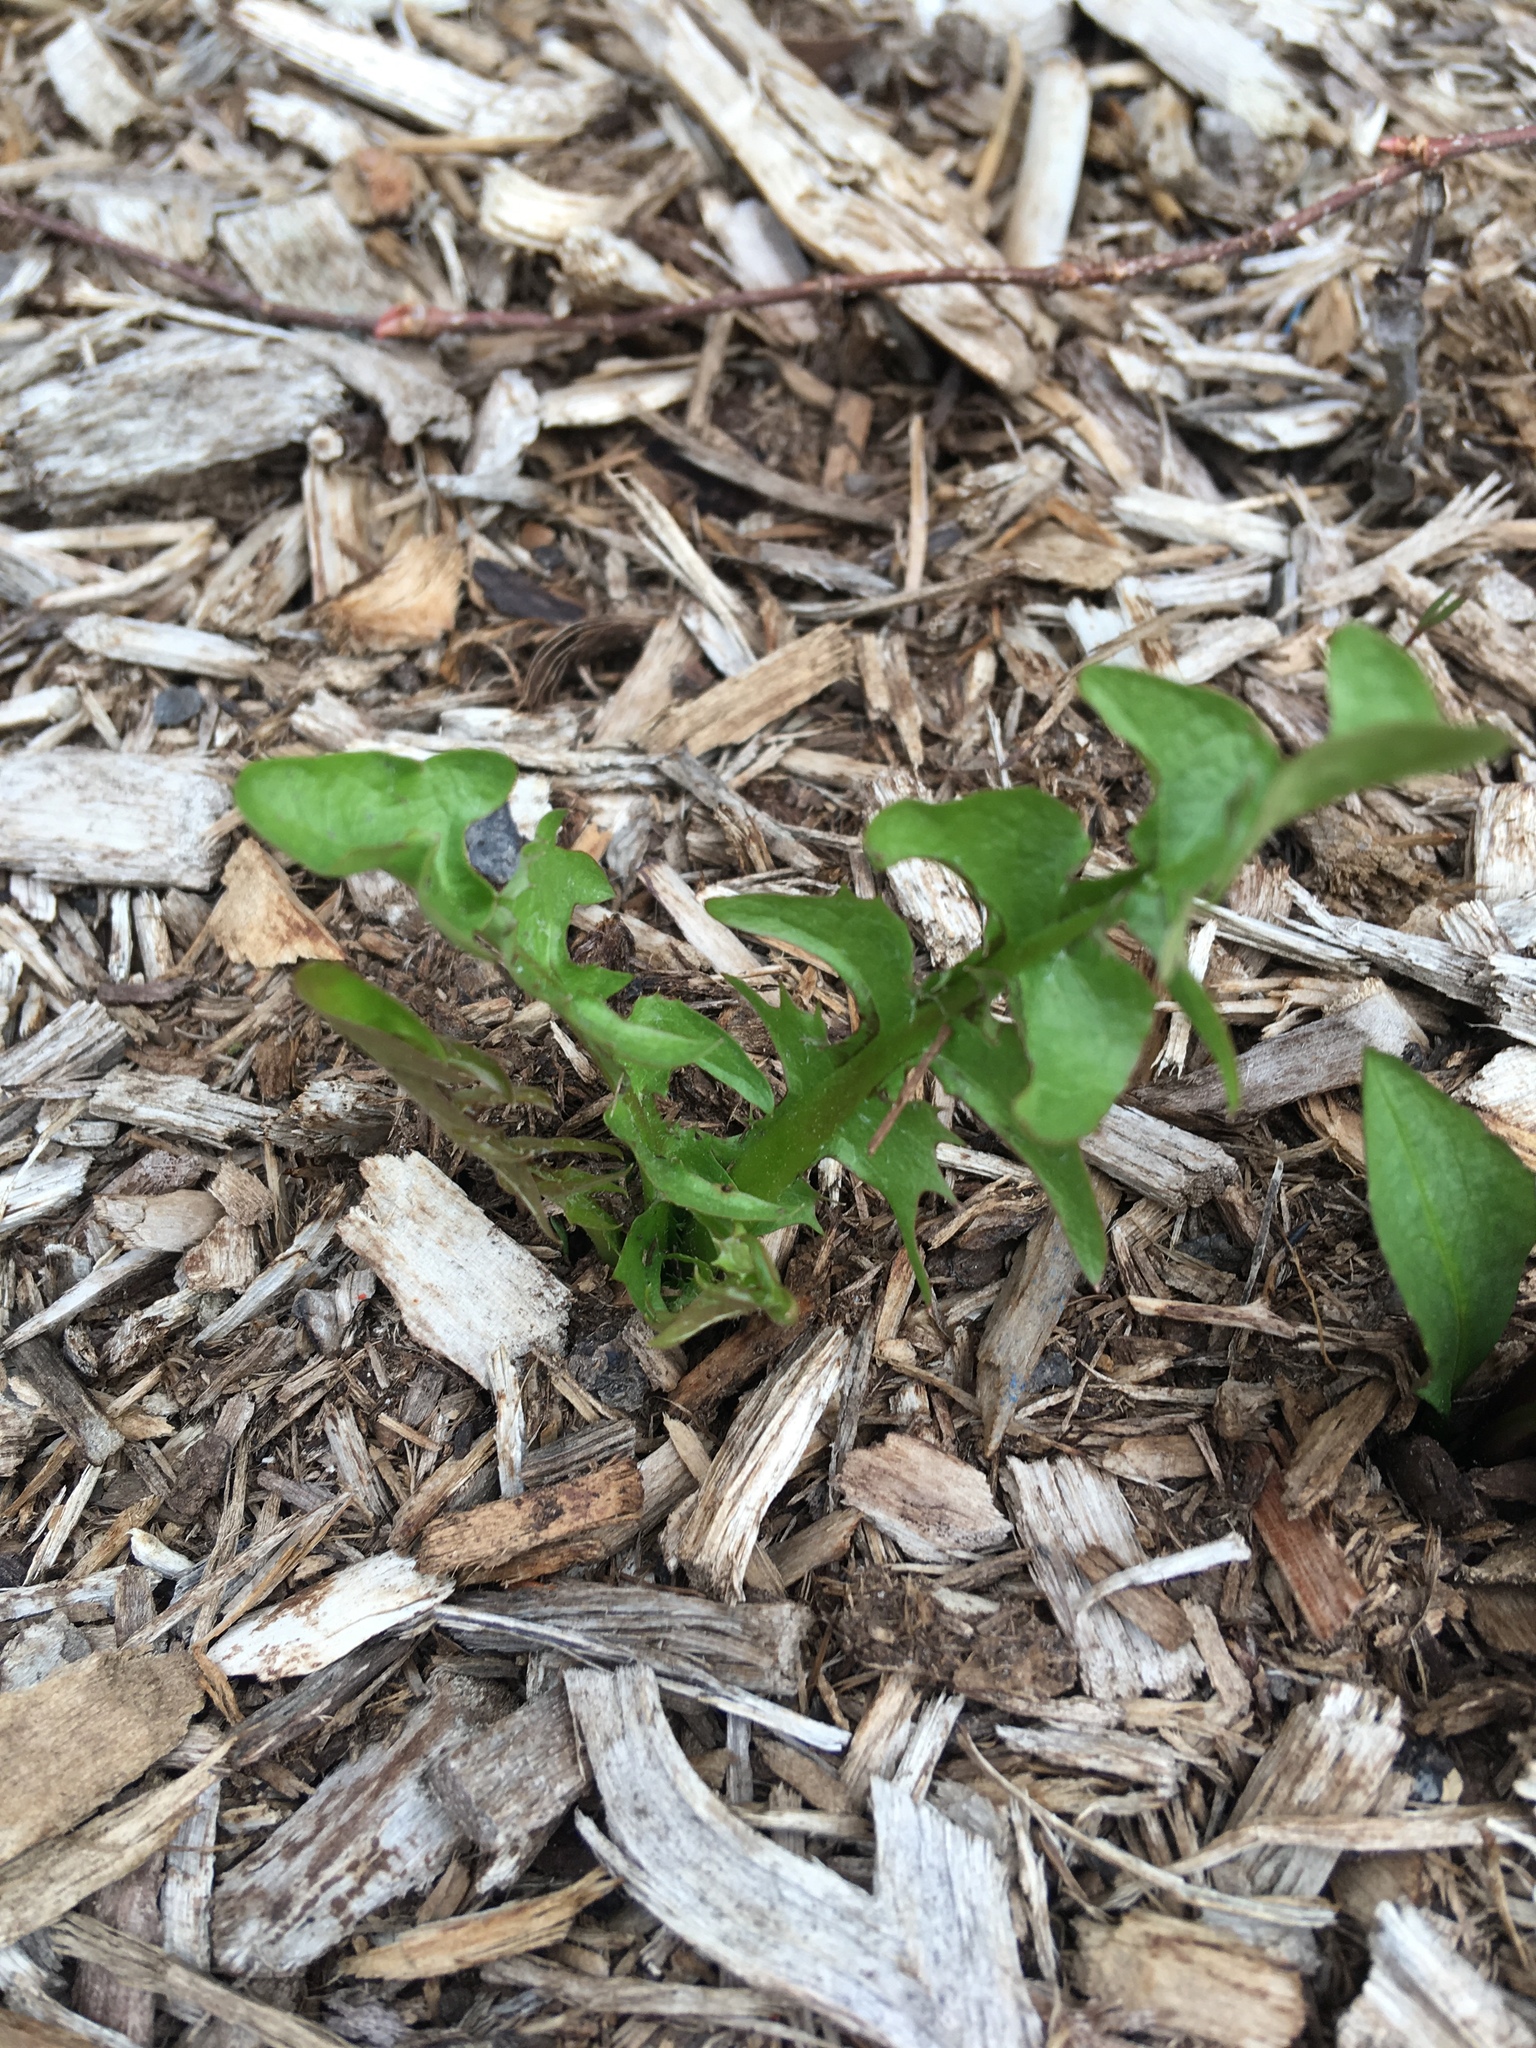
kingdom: Plantae
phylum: Tracheophyta
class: Magnoliopsida
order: Asterales
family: Asteraceae
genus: Taraxacum
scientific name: Taraxacum officinale
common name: Common dandelion
